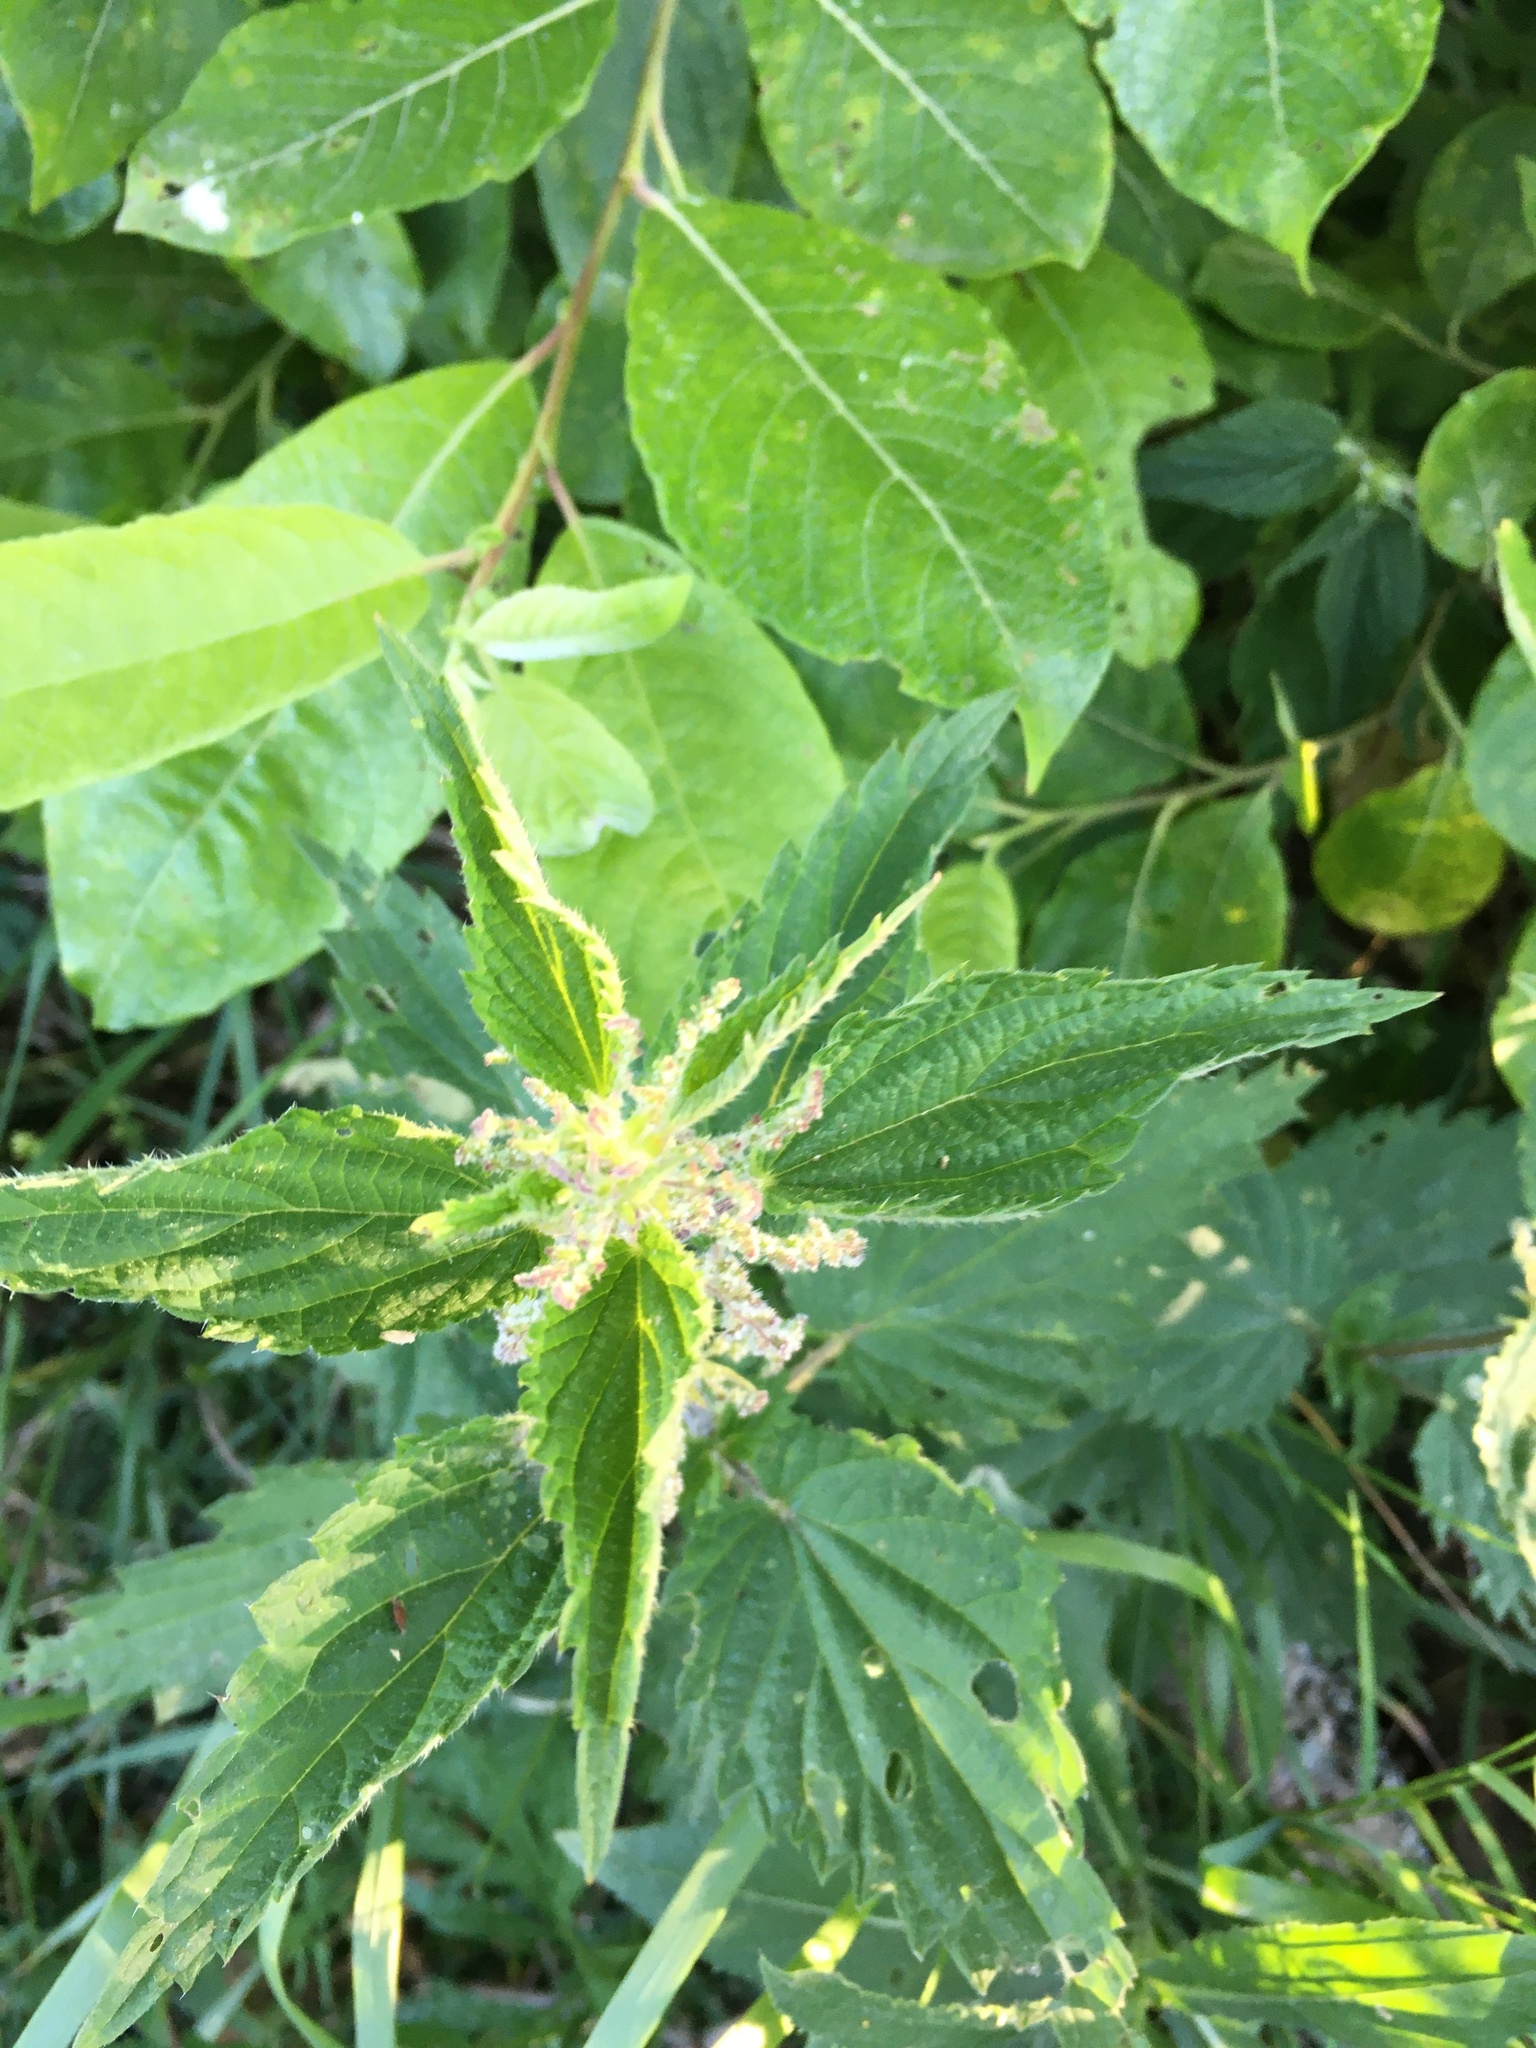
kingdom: Plantae
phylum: Tracheophyta
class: Magnoliopsida
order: Rosales
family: Urticaceae
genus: Urtica
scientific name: Urtica dioica
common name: Common nettle
